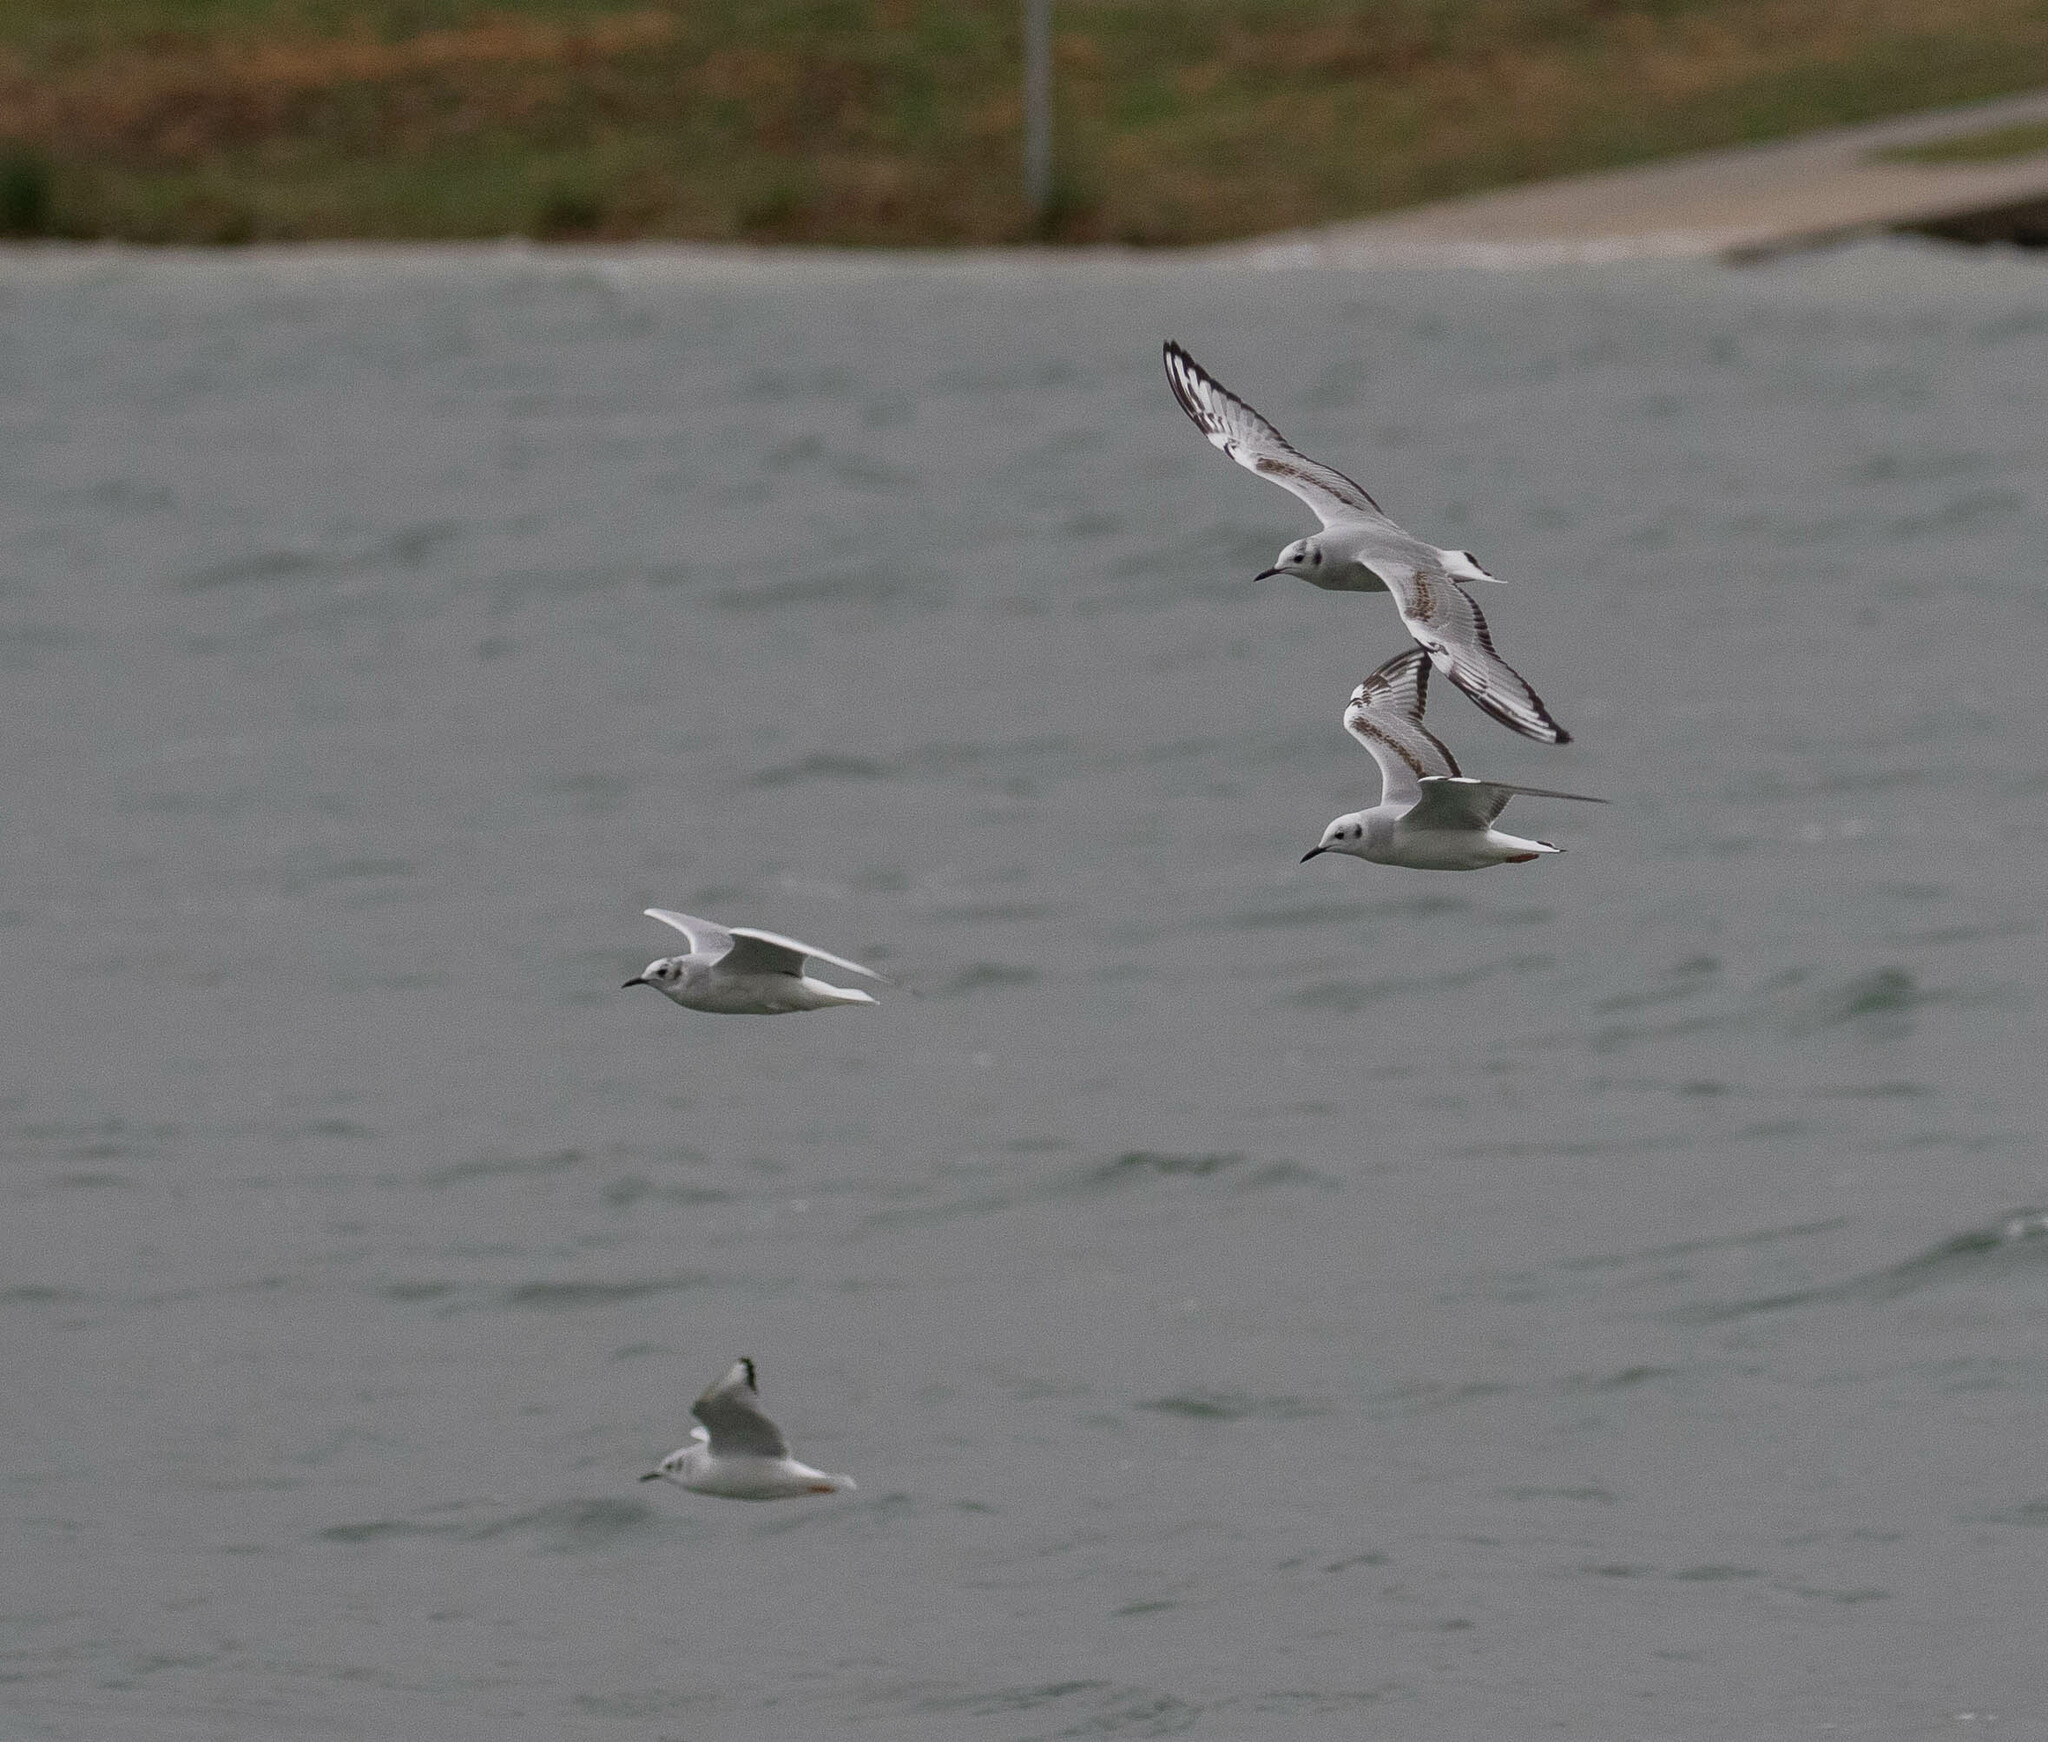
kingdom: Animalia
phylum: Chordata
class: Aves
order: Charadriiformes
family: Laridae
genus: Chroicocephalus
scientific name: Chroicocephalus philadelphia
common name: Bonaparte's gull
